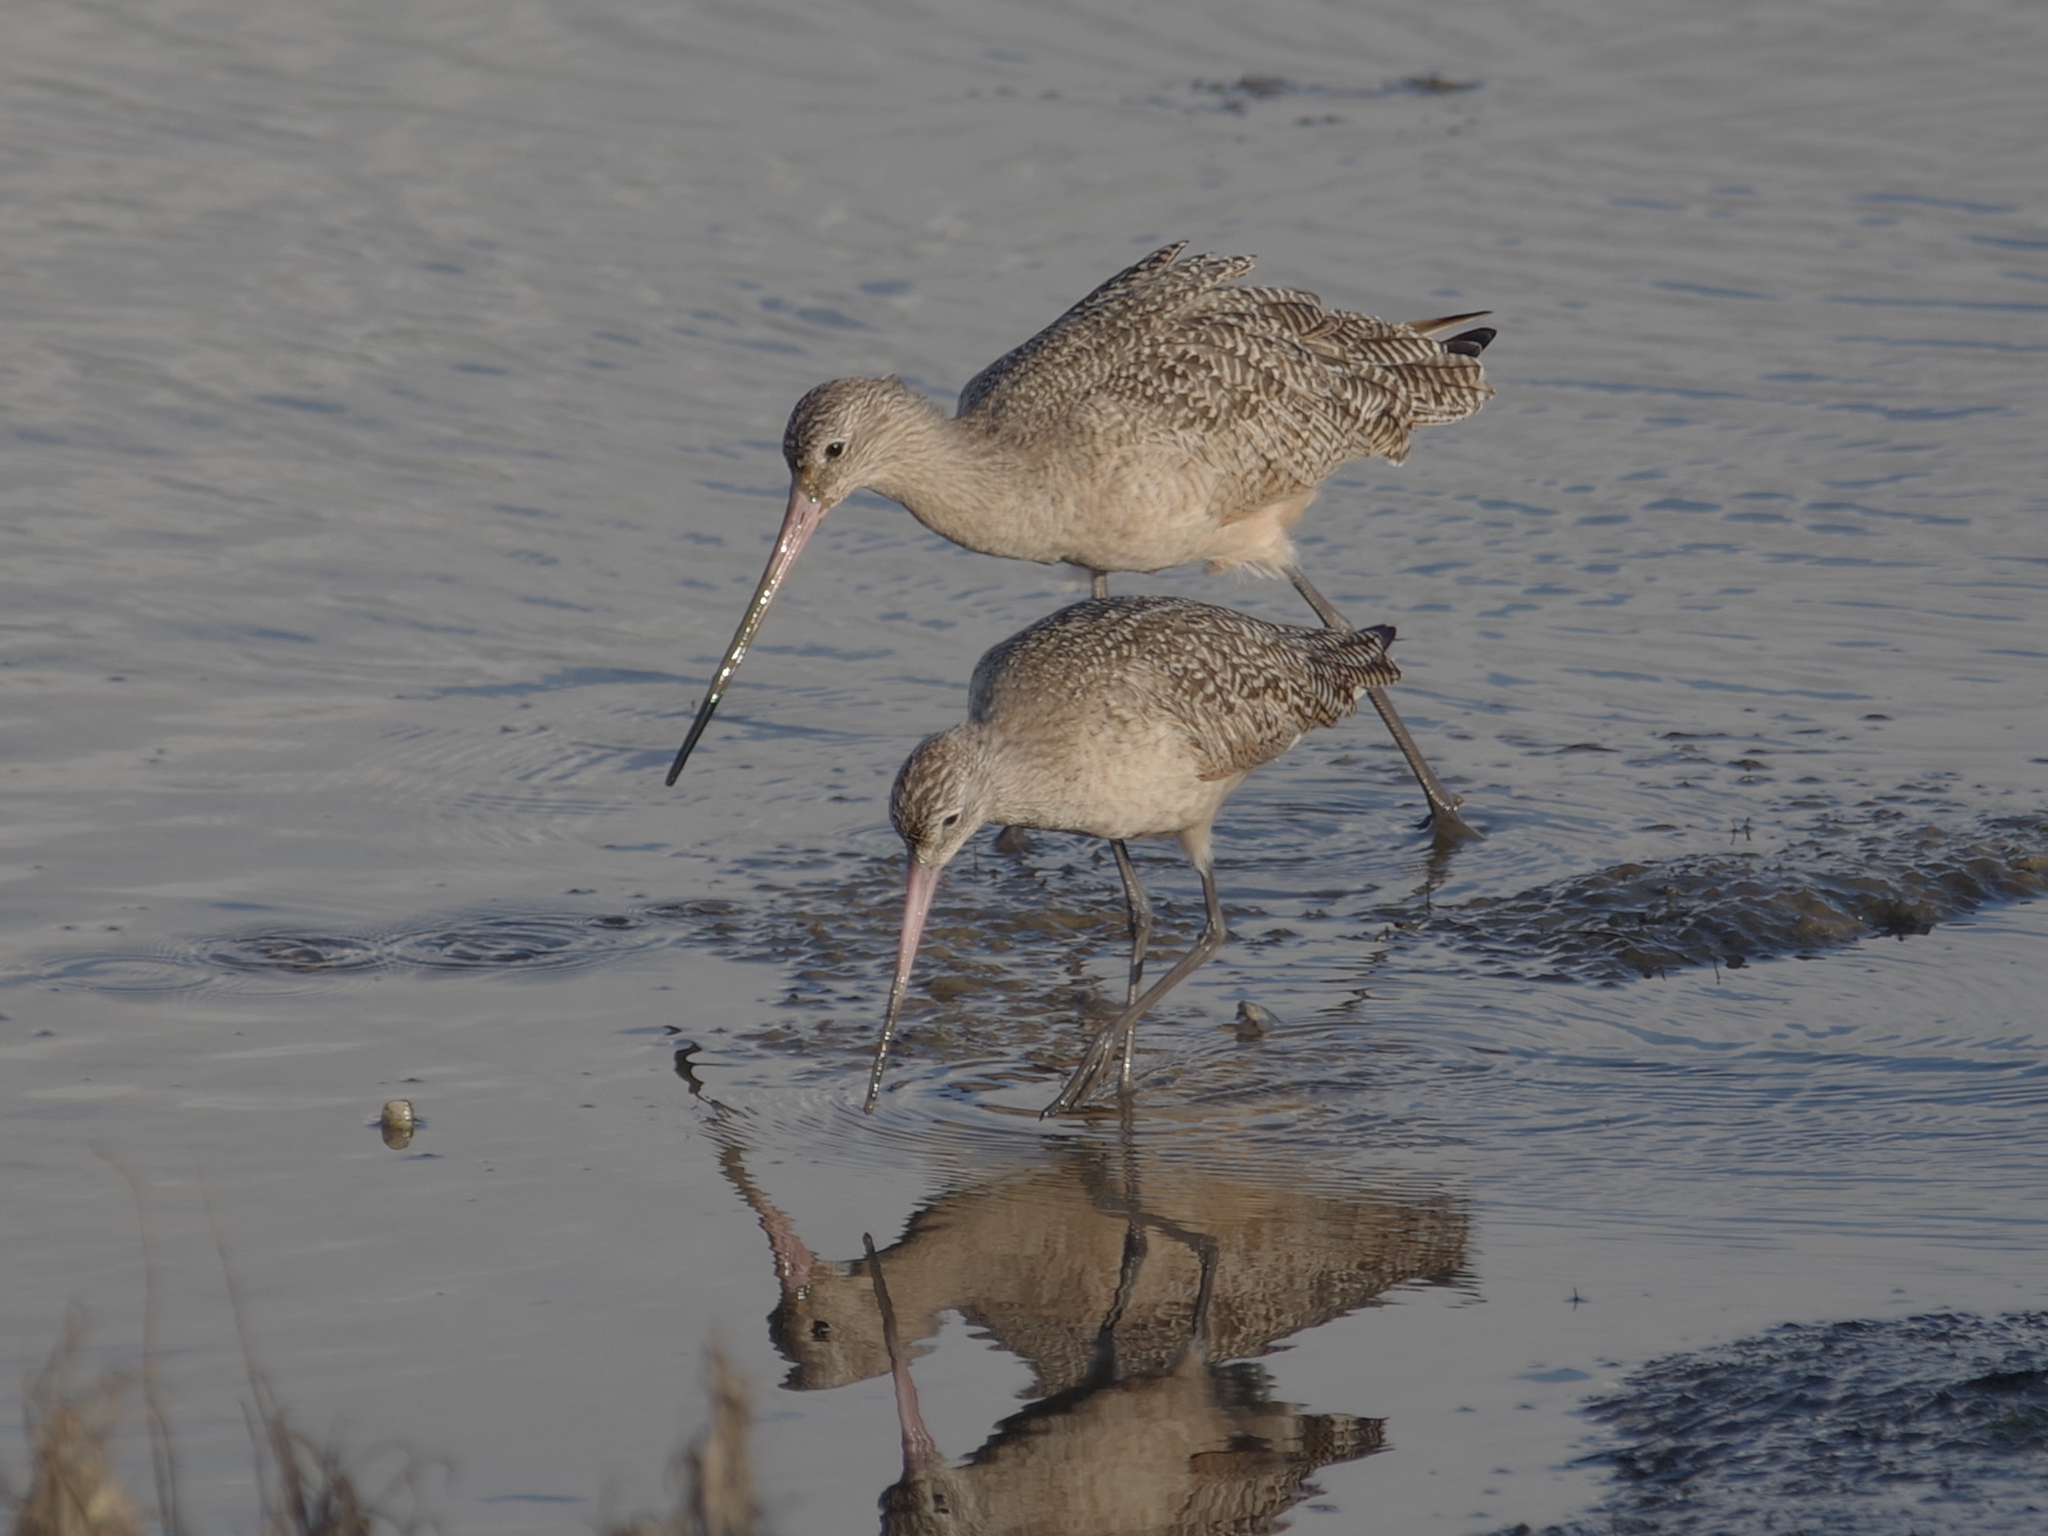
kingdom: Animalia
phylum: Chordata
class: Aves
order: Charadriiformes
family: Scolopacidae
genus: Limosa
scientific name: Limosa fedoa
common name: Marbled godwit
